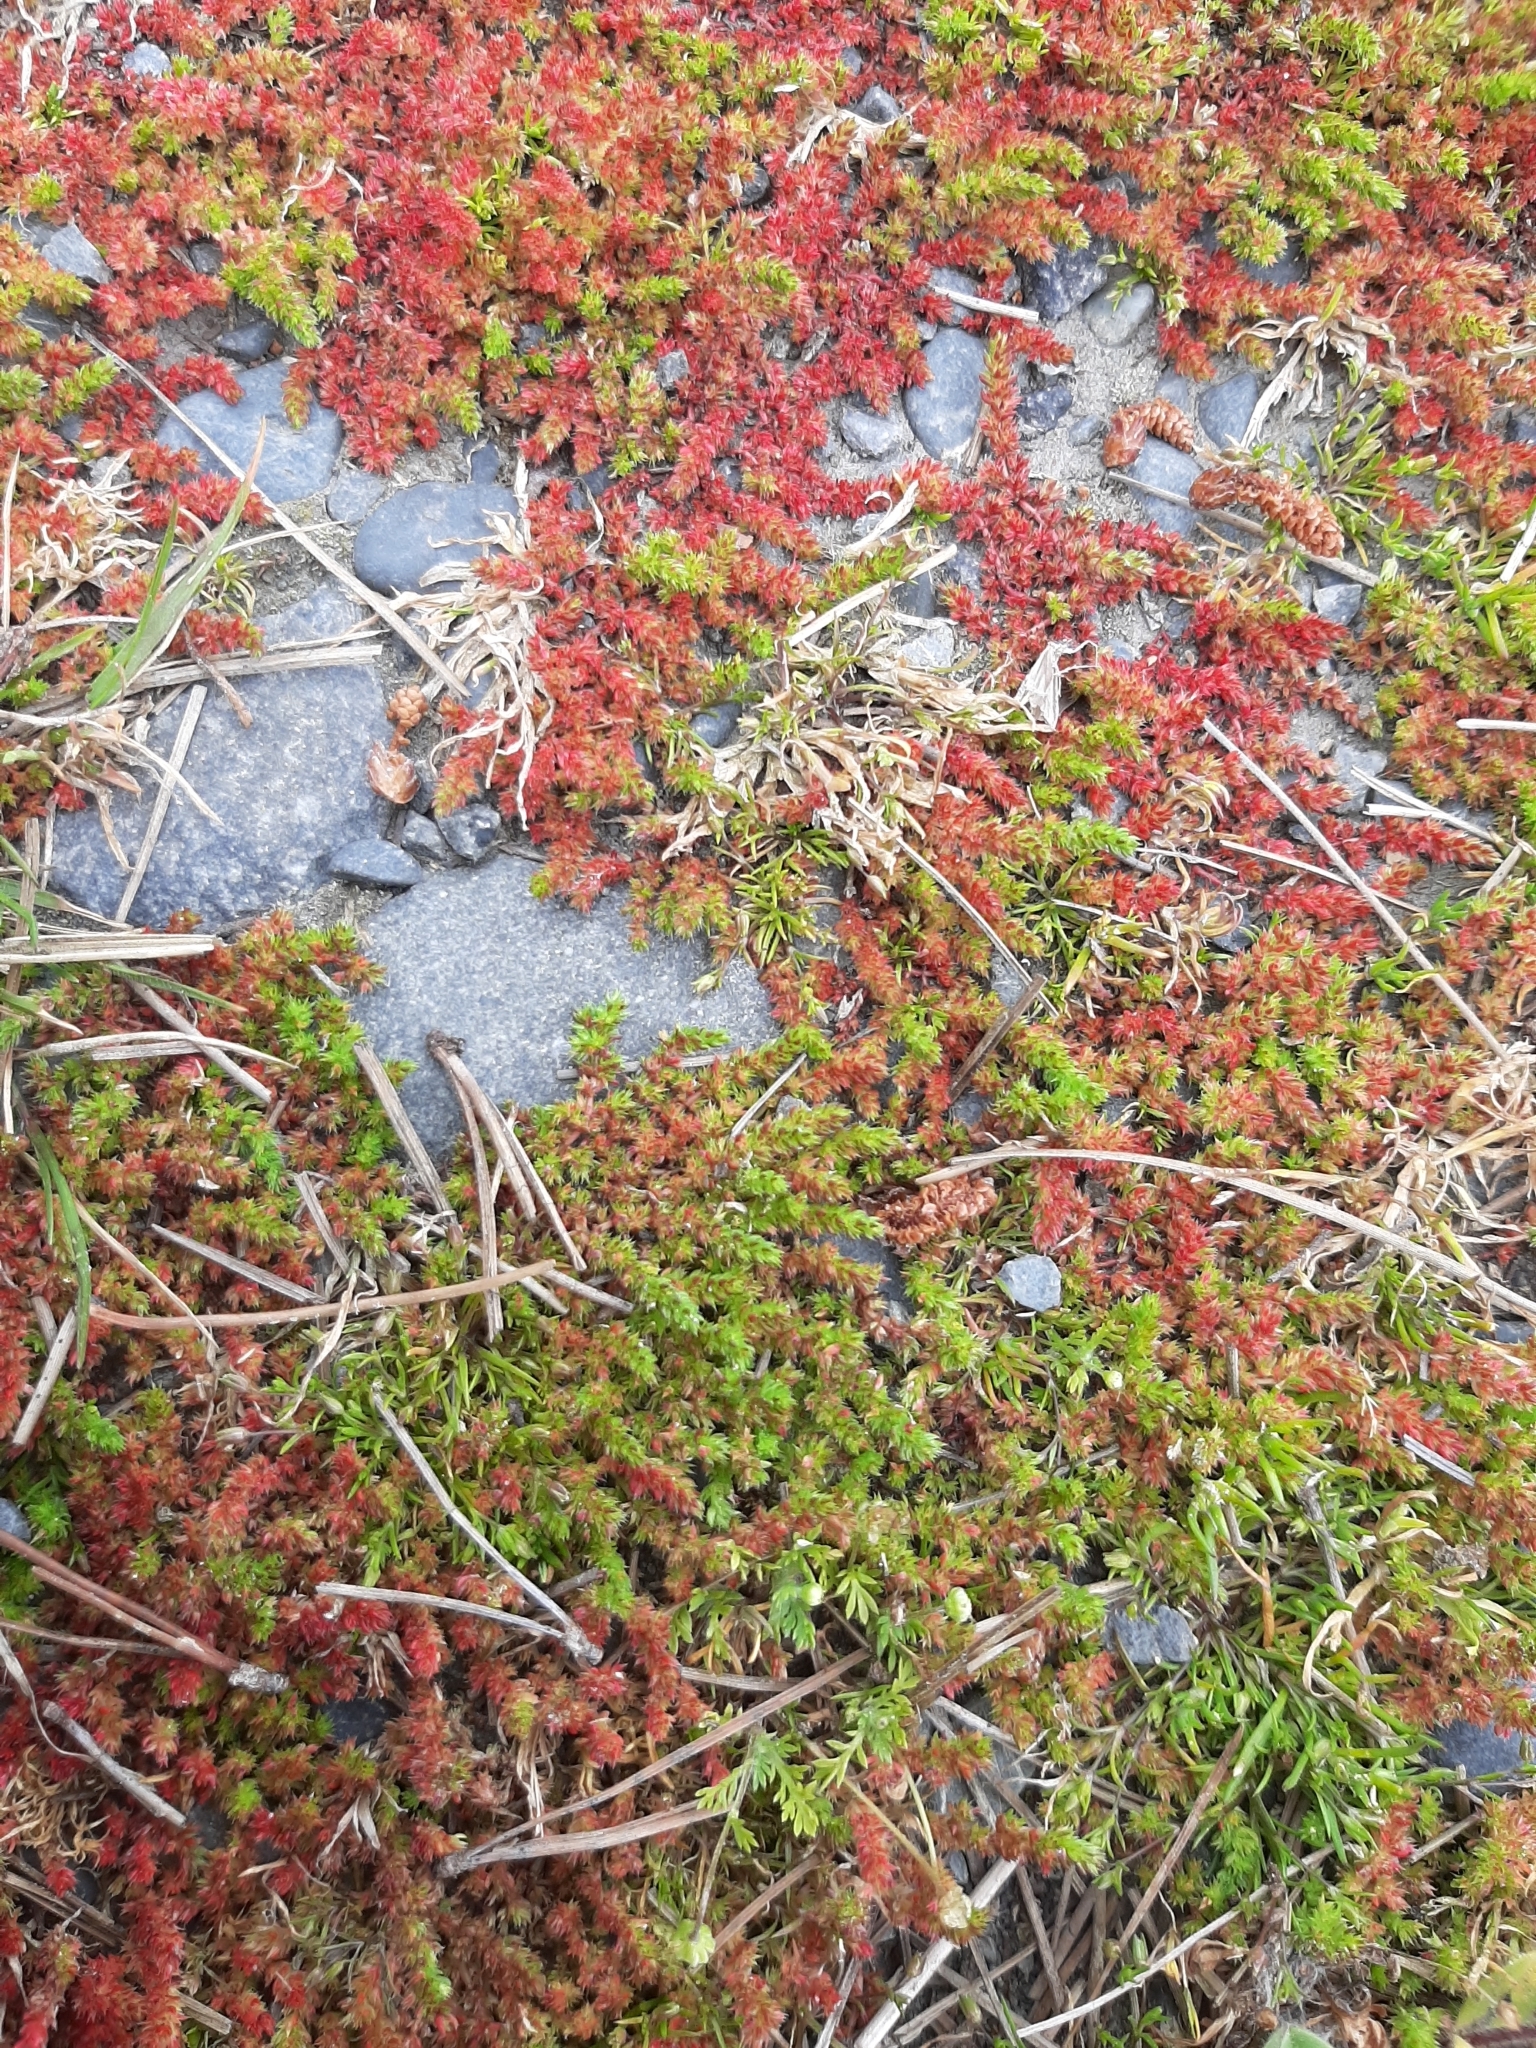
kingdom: Plantae
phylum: Tracheophyta
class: Magnoliopsida
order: Saxifragales
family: Crassulaceae
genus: Crassula
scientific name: Crassula alata
